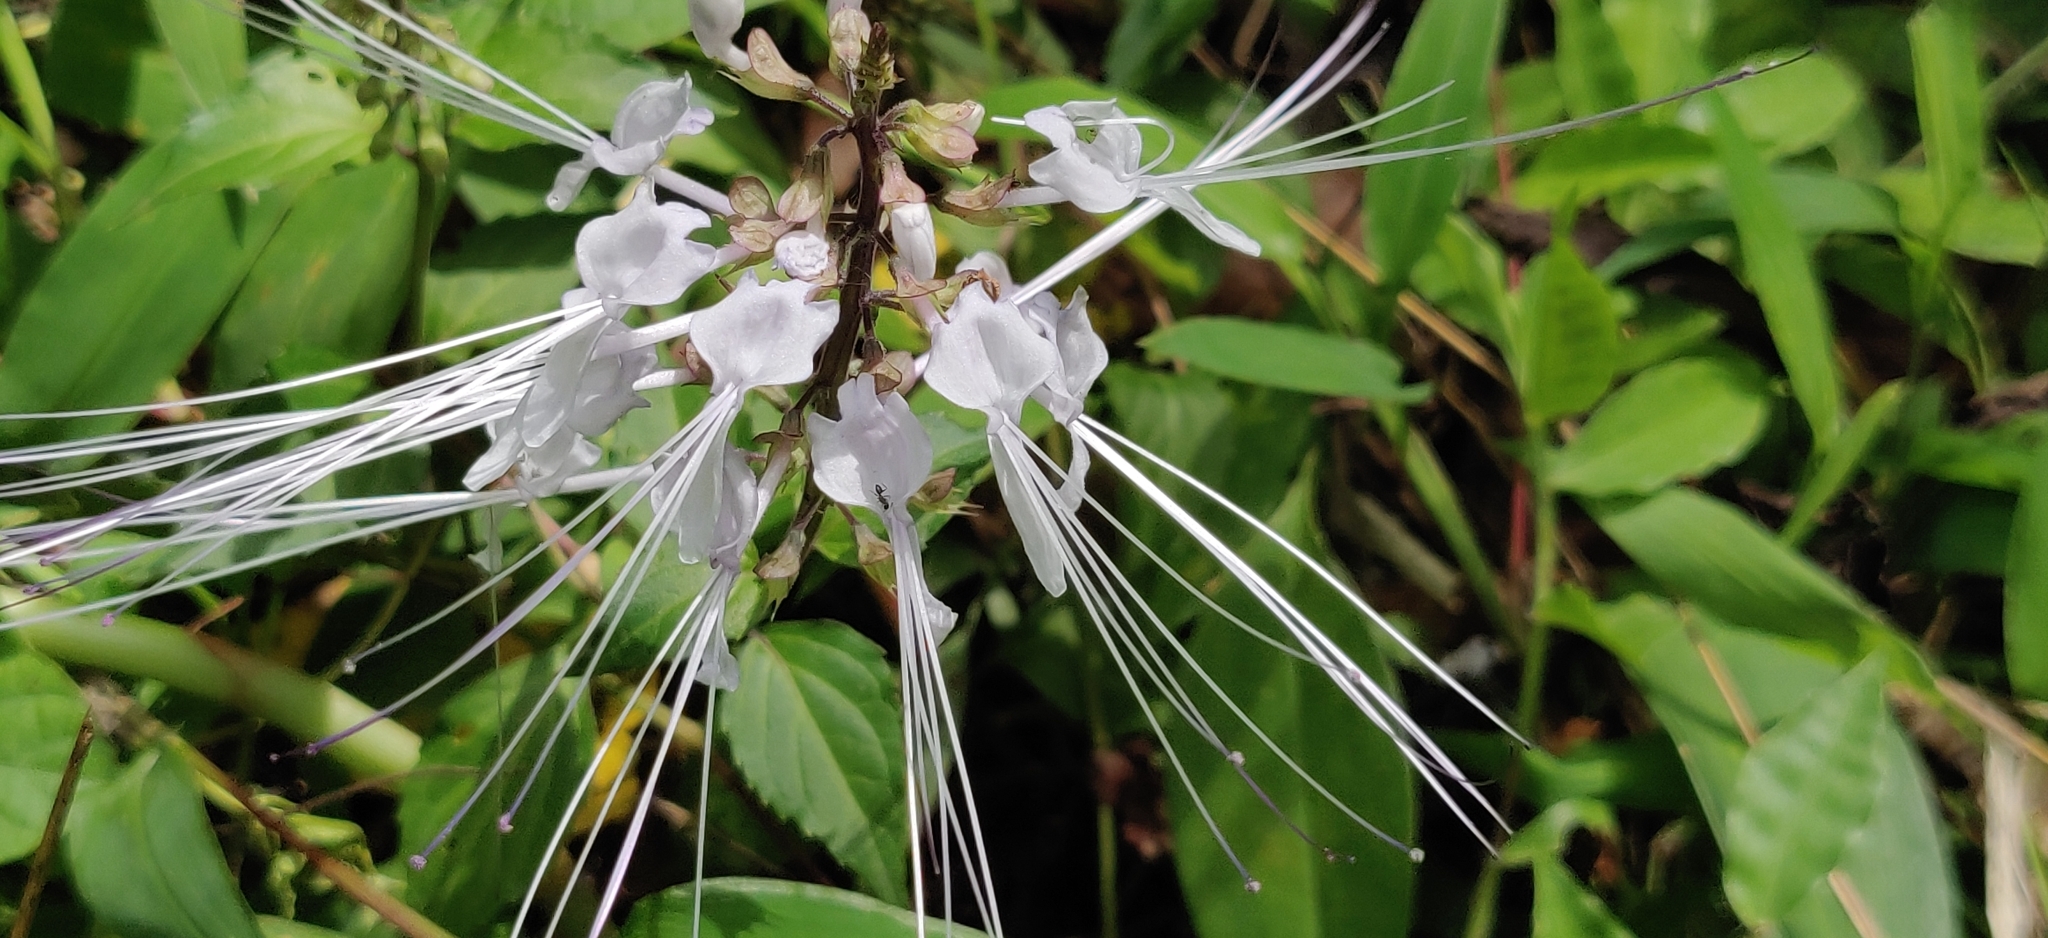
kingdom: Plantae
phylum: Tracheophyta
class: Magnoliopsida
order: Lamiales
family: Lamiaceae
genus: Orthosiphon
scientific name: Orthosiphon aristatus
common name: Whiskerplant
